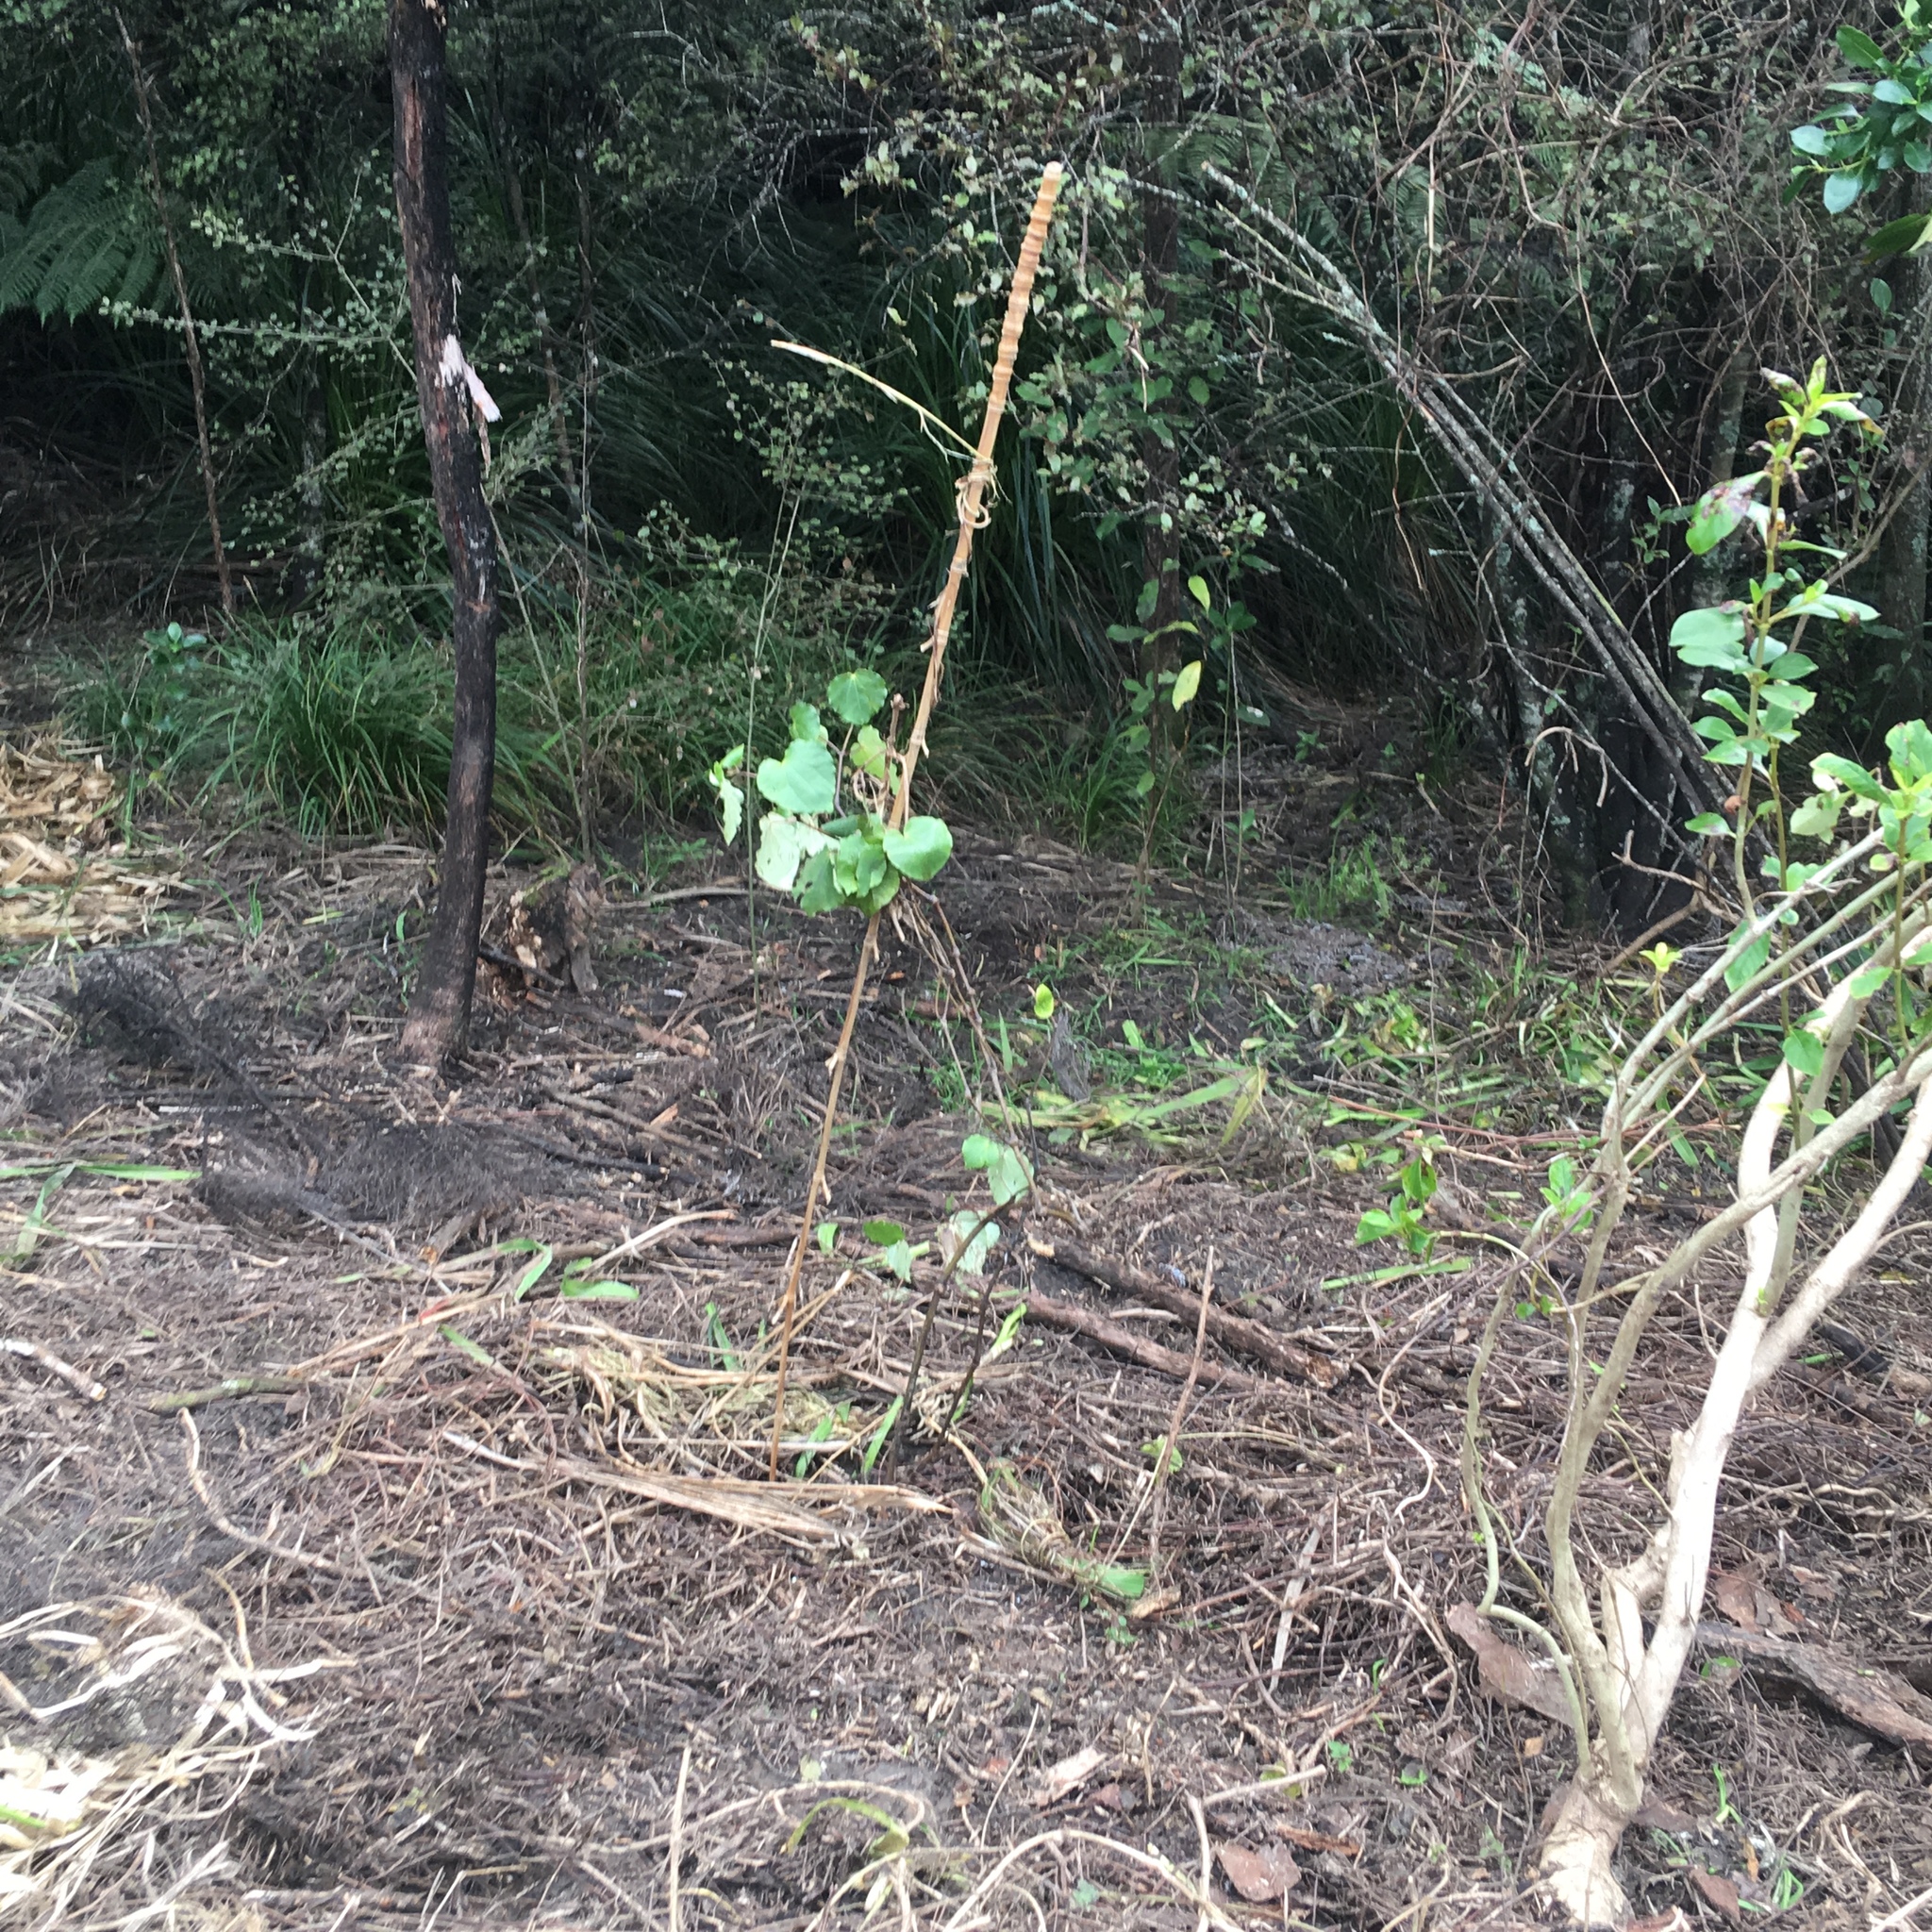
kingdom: Plantae
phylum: Tracheophyta
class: Magnoliopsida
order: Piperales
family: Piperaceae
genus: Macropiper
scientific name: Macropiper excelsum
